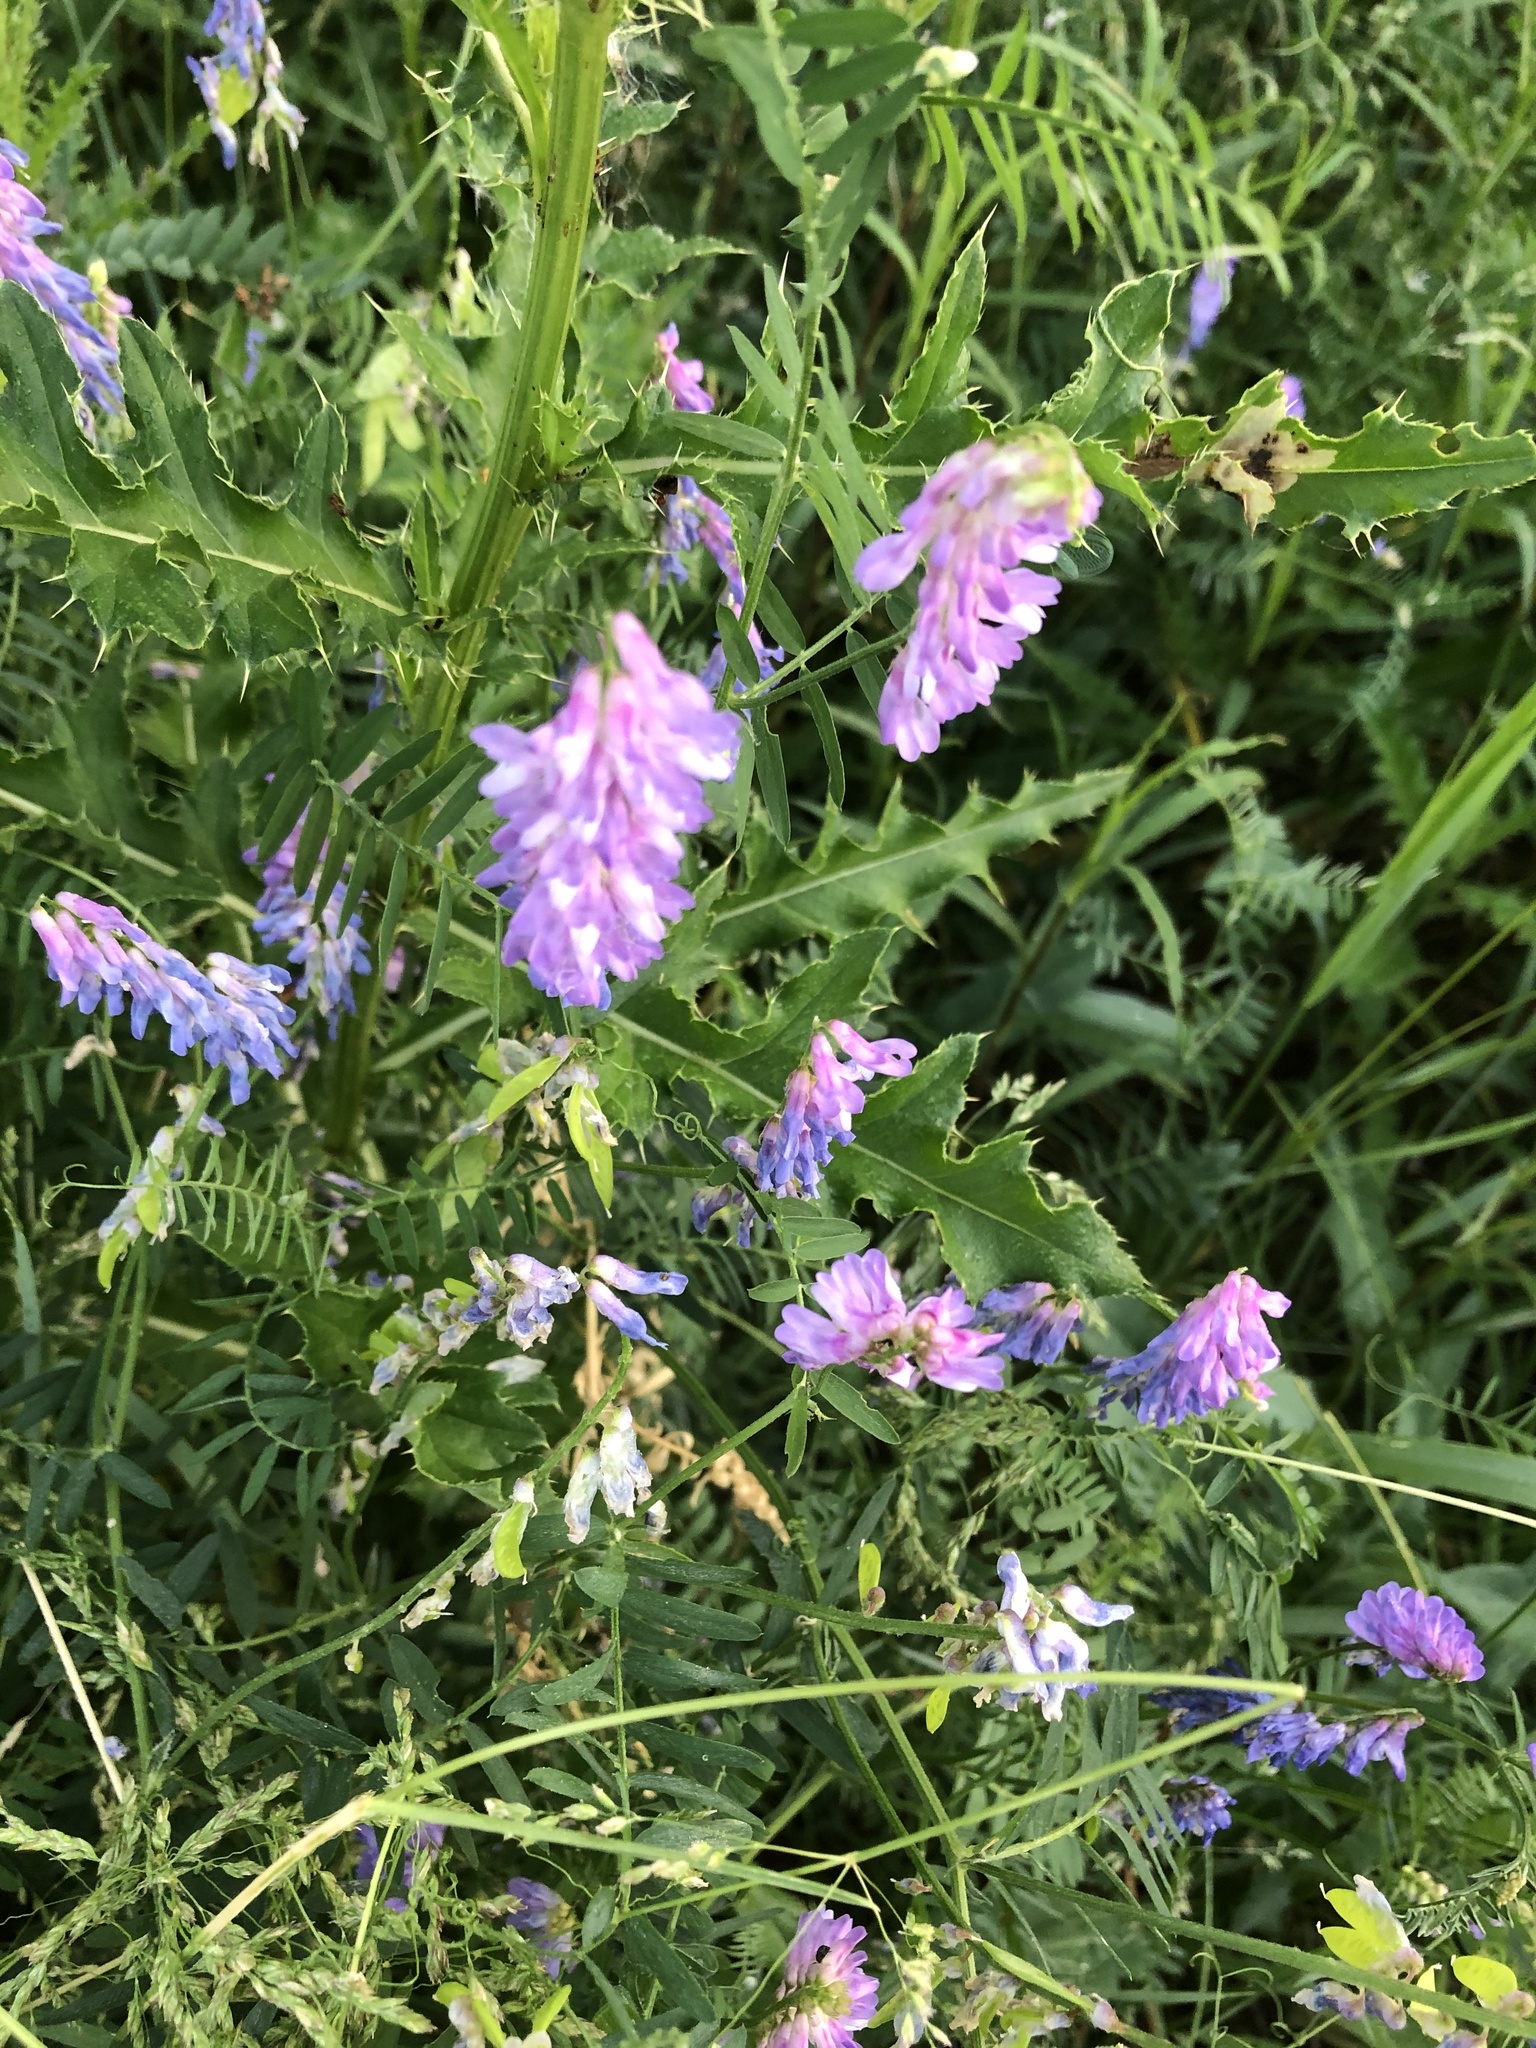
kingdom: Plantae
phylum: Tracheophyta
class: Magnoliopsida
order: Fabales
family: Fabaceae
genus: Vicia
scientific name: Vicia cracca
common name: Bird vetch
